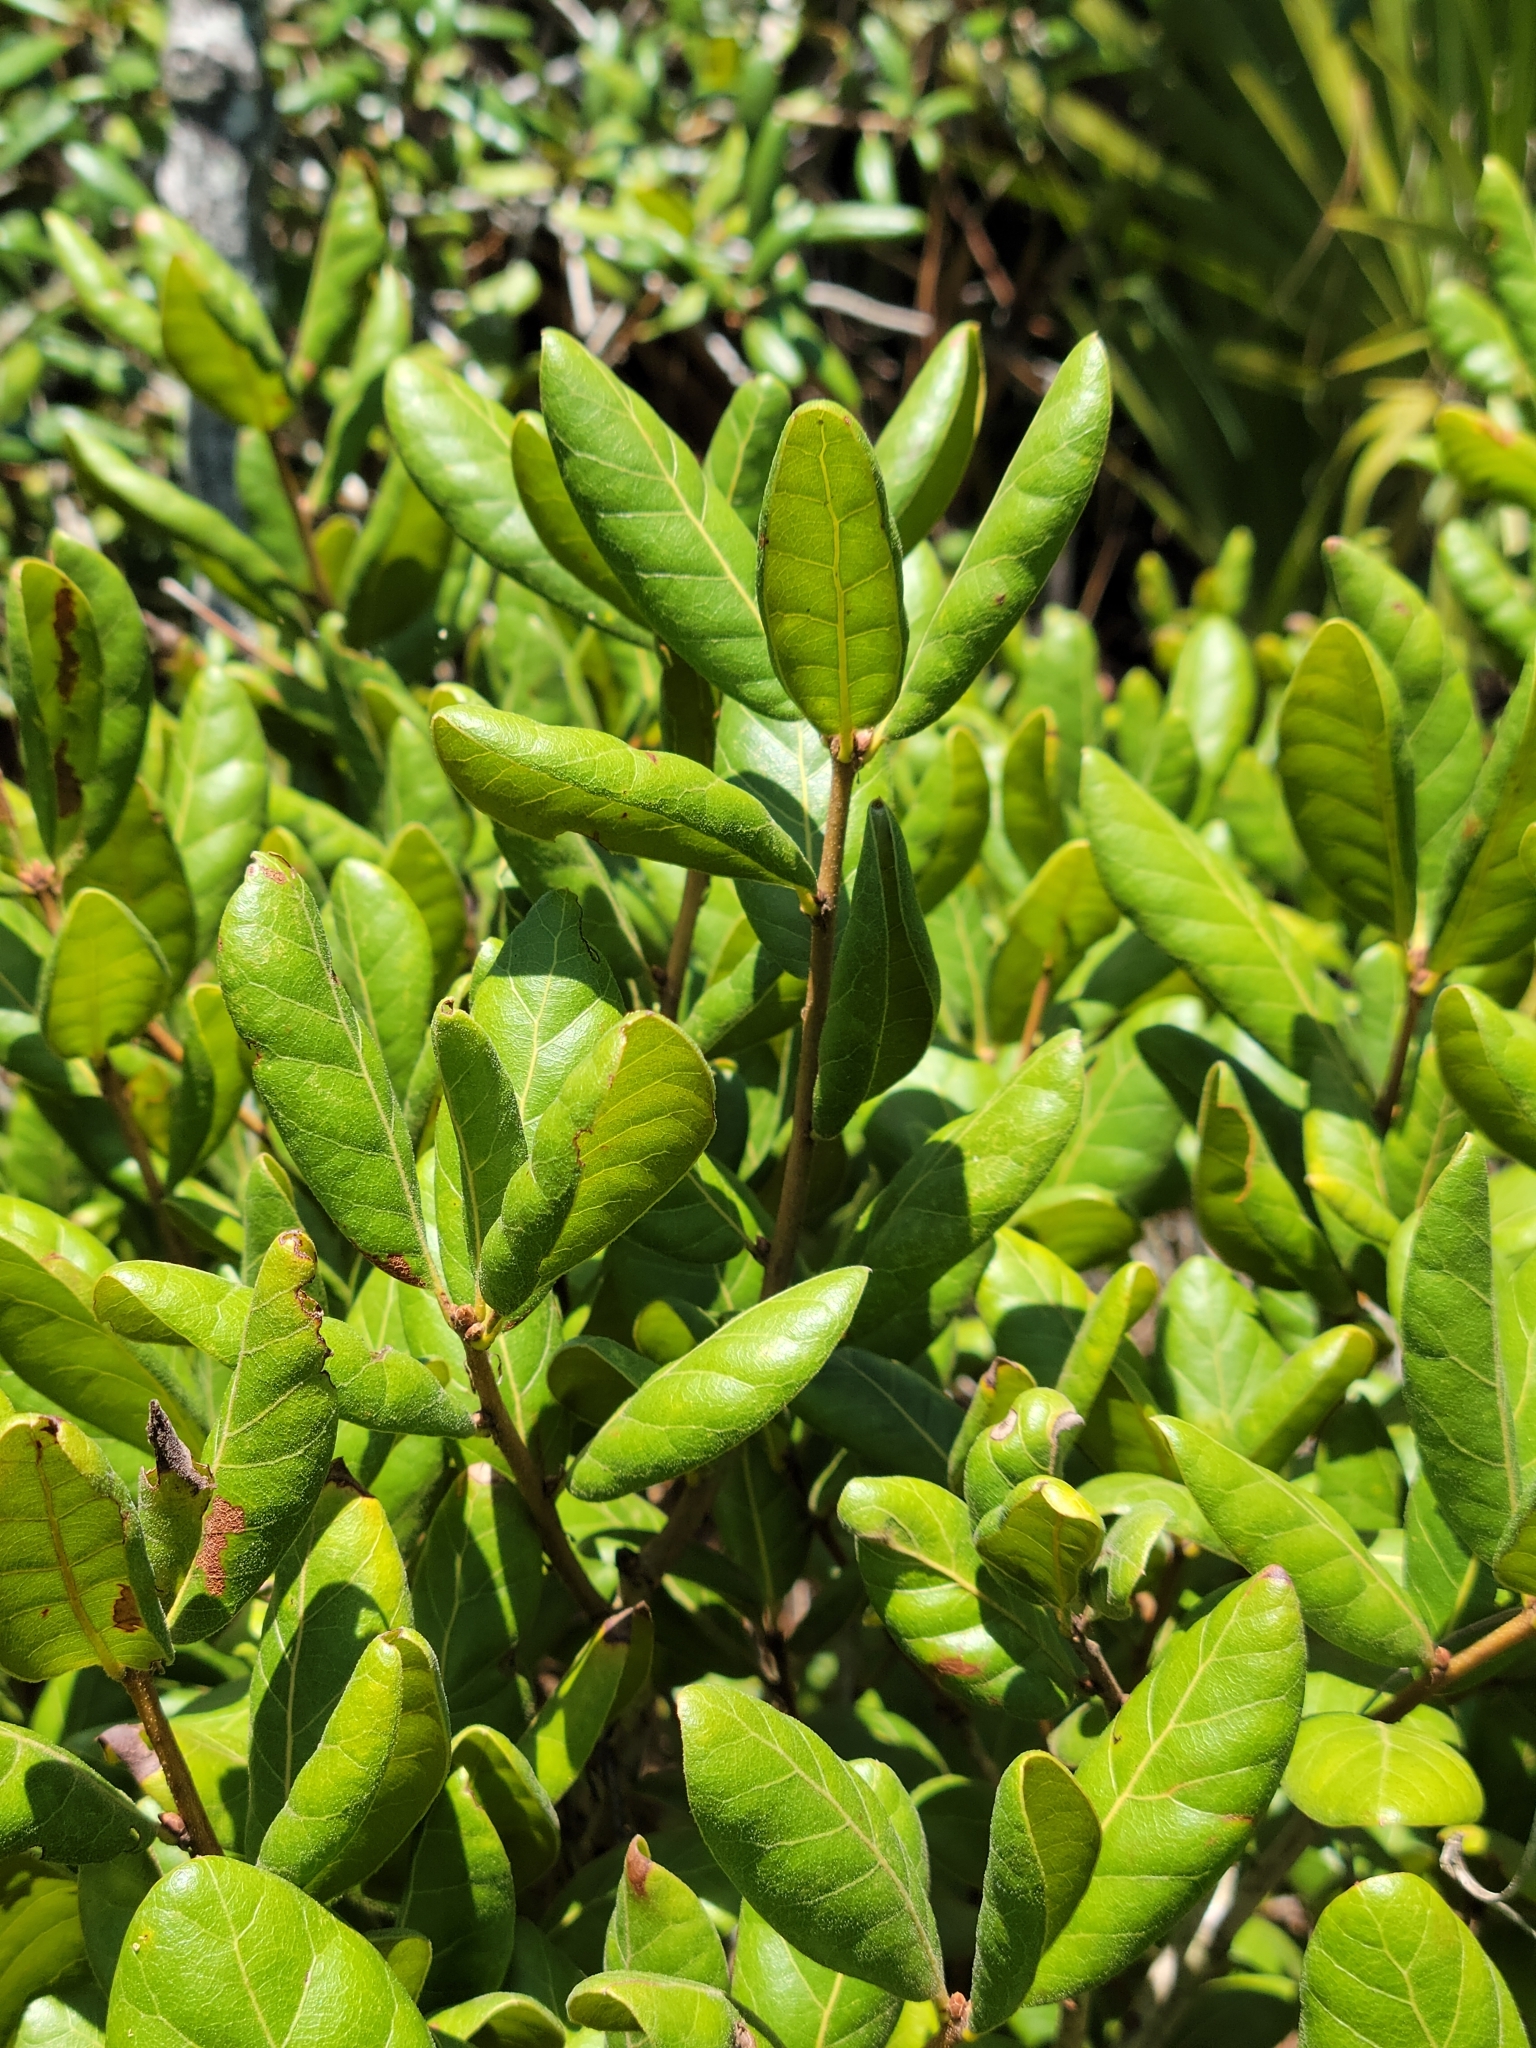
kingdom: Plantae
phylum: Tracheophyta
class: Magnoliopsida
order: Fagales
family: Fagaceae
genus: Quercus
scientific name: Quercus inopina
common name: Sandhill oak
